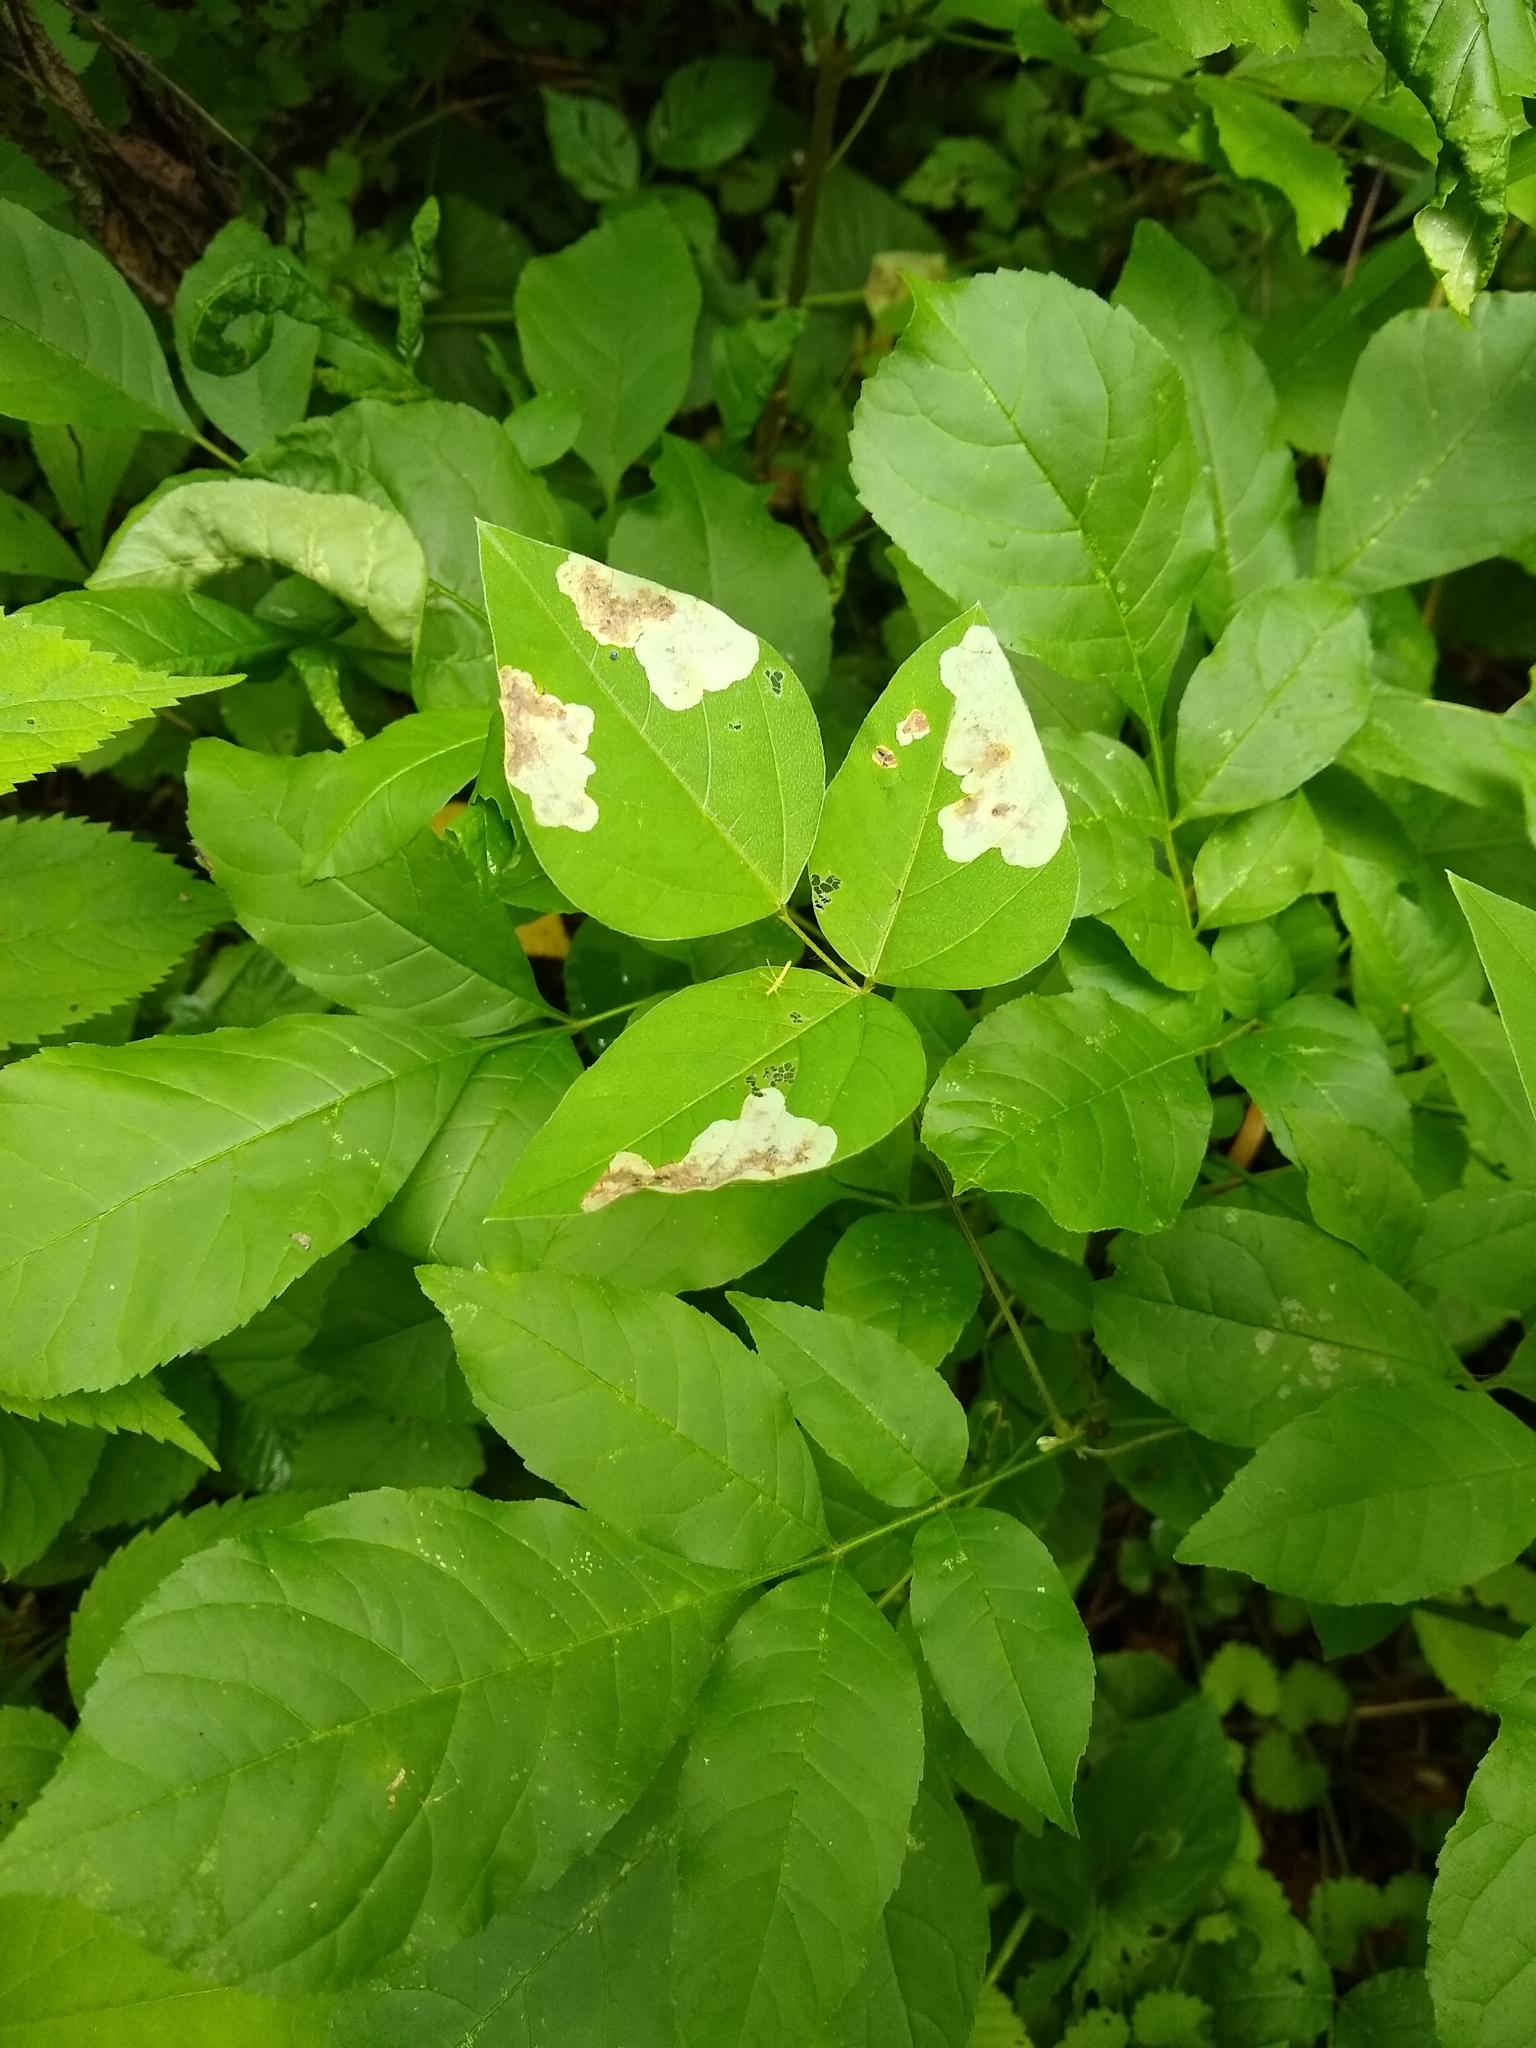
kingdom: Animalia
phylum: Arthropoda
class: Insecta
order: Lepidoptera
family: Gracillariidae
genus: Leucanthiza
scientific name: Leucanthiza amphicarpeaefoliella
